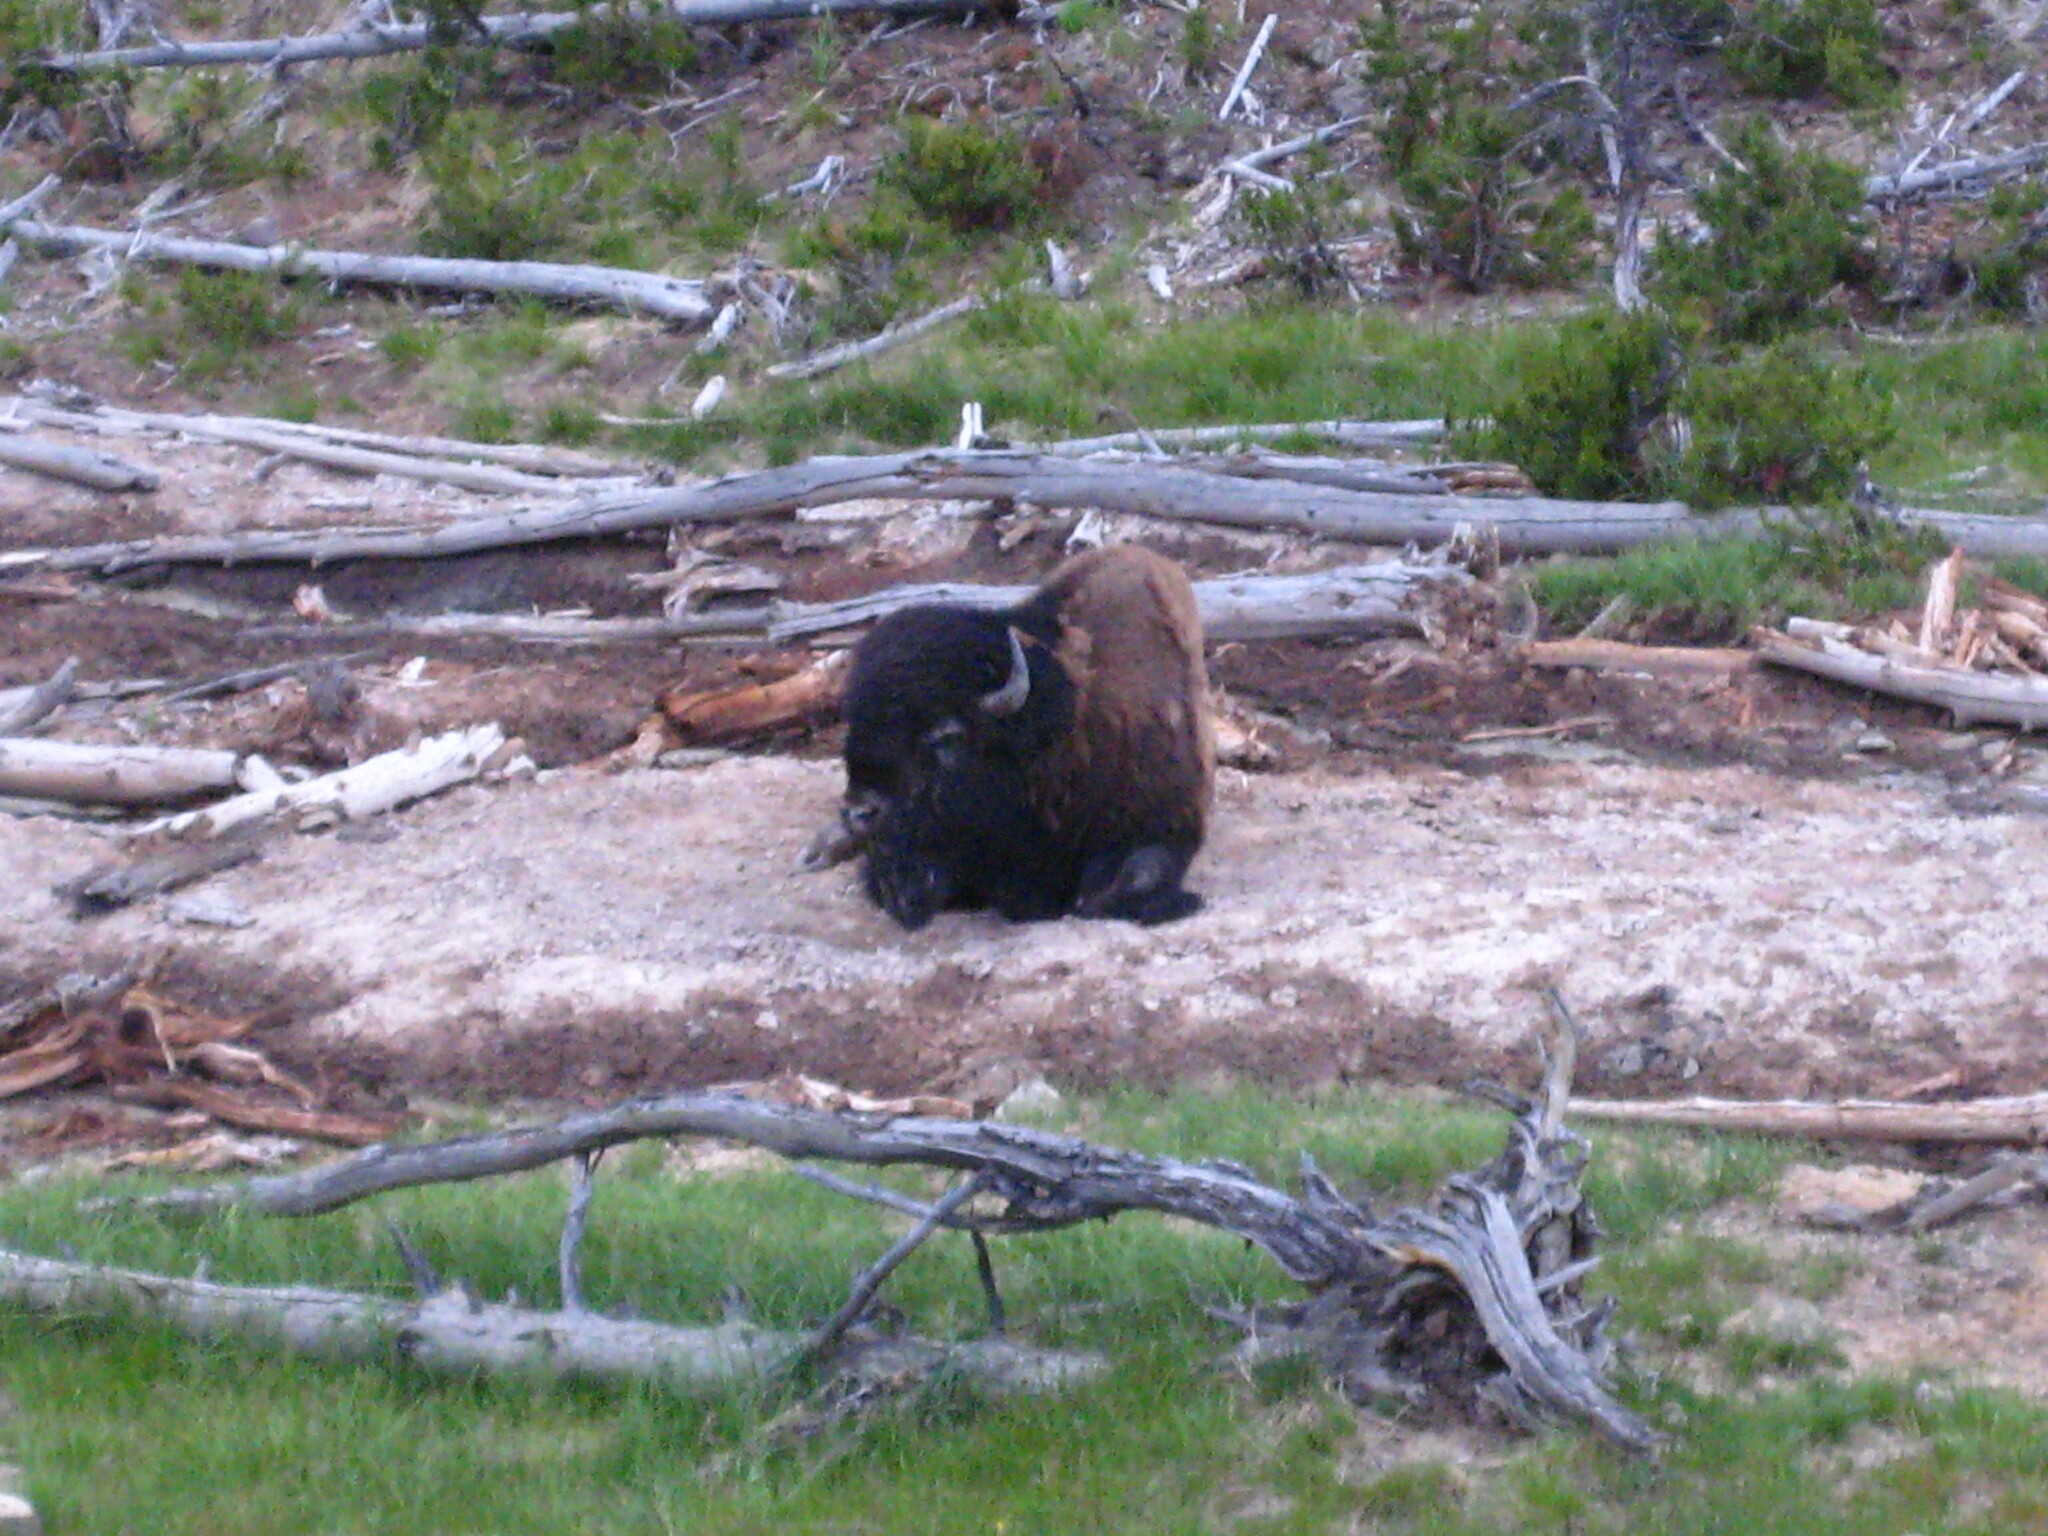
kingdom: Animalia
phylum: Chordata
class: Mammalia
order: Artiodactyla
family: Bovidae
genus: Bison
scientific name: Bison bison
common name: American bison
